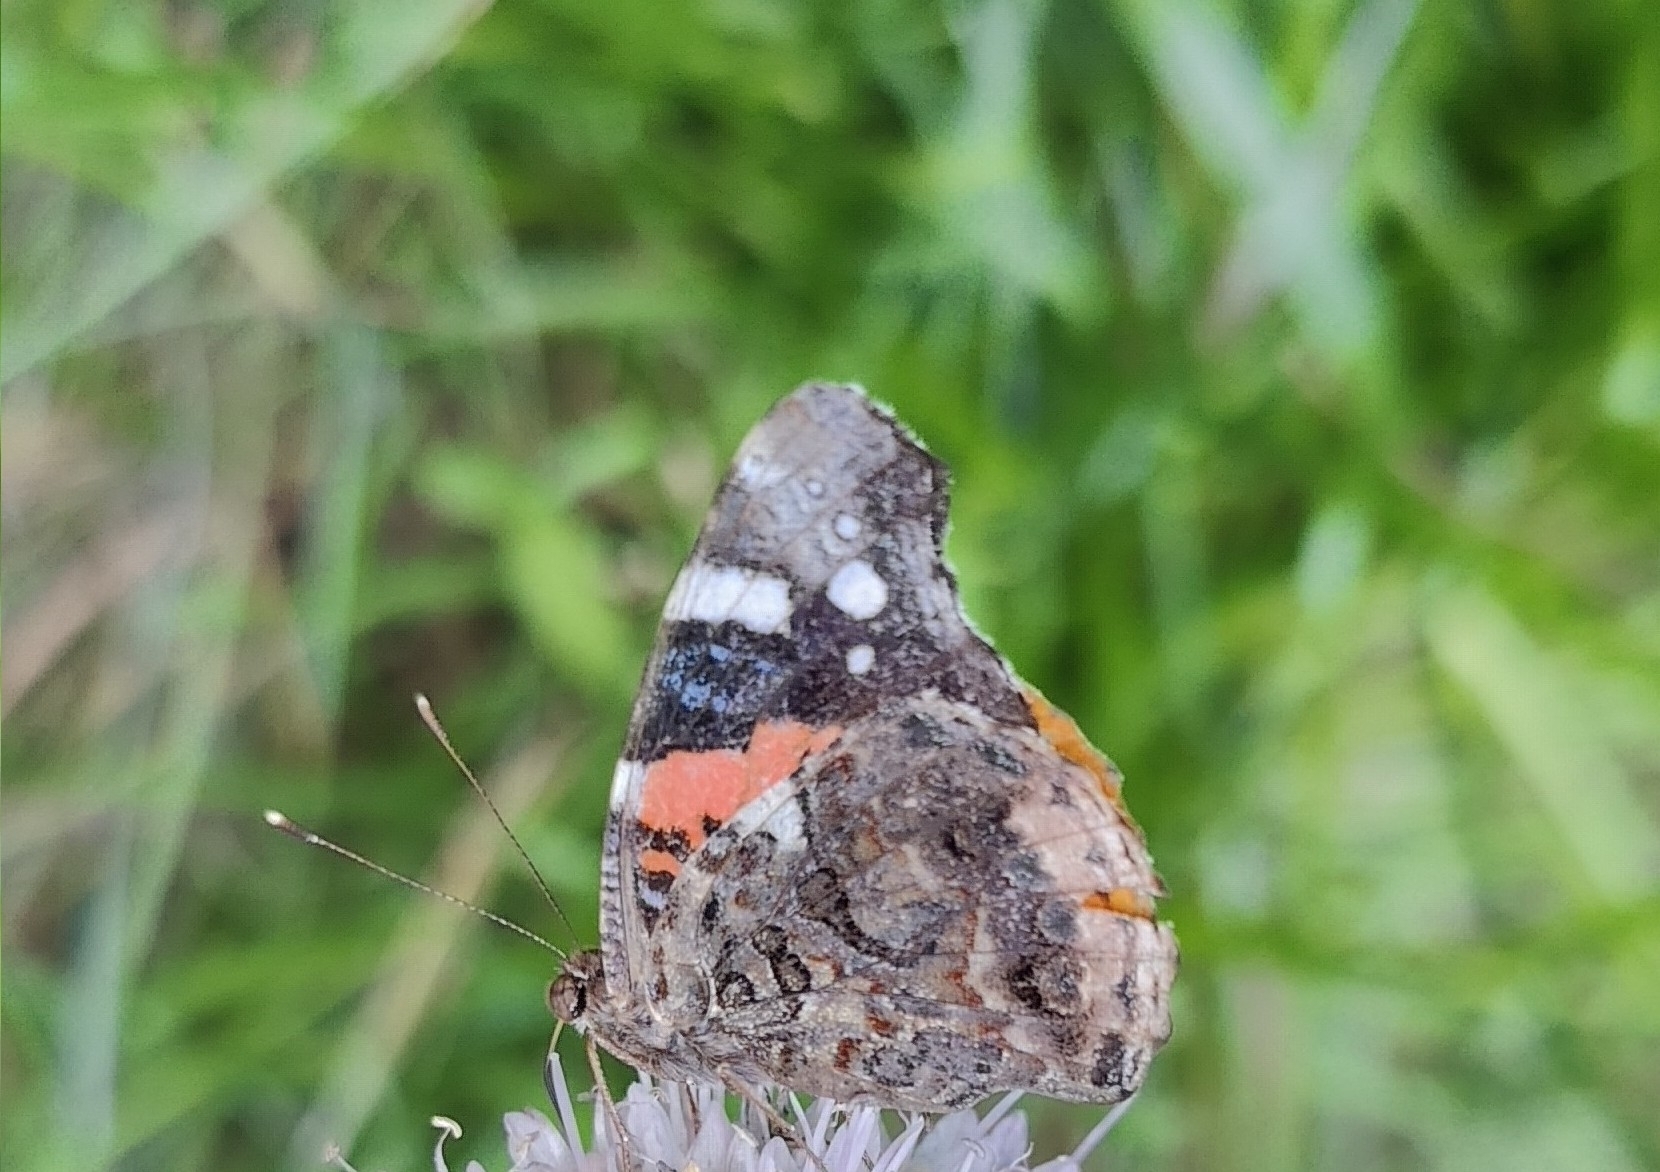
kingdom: Animalia
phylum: Arthropoda
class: Insecta
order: Lepidoptera
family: Nymphalidae
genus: Vanessa
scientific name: Vanessa atalanta
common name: Red admiral
